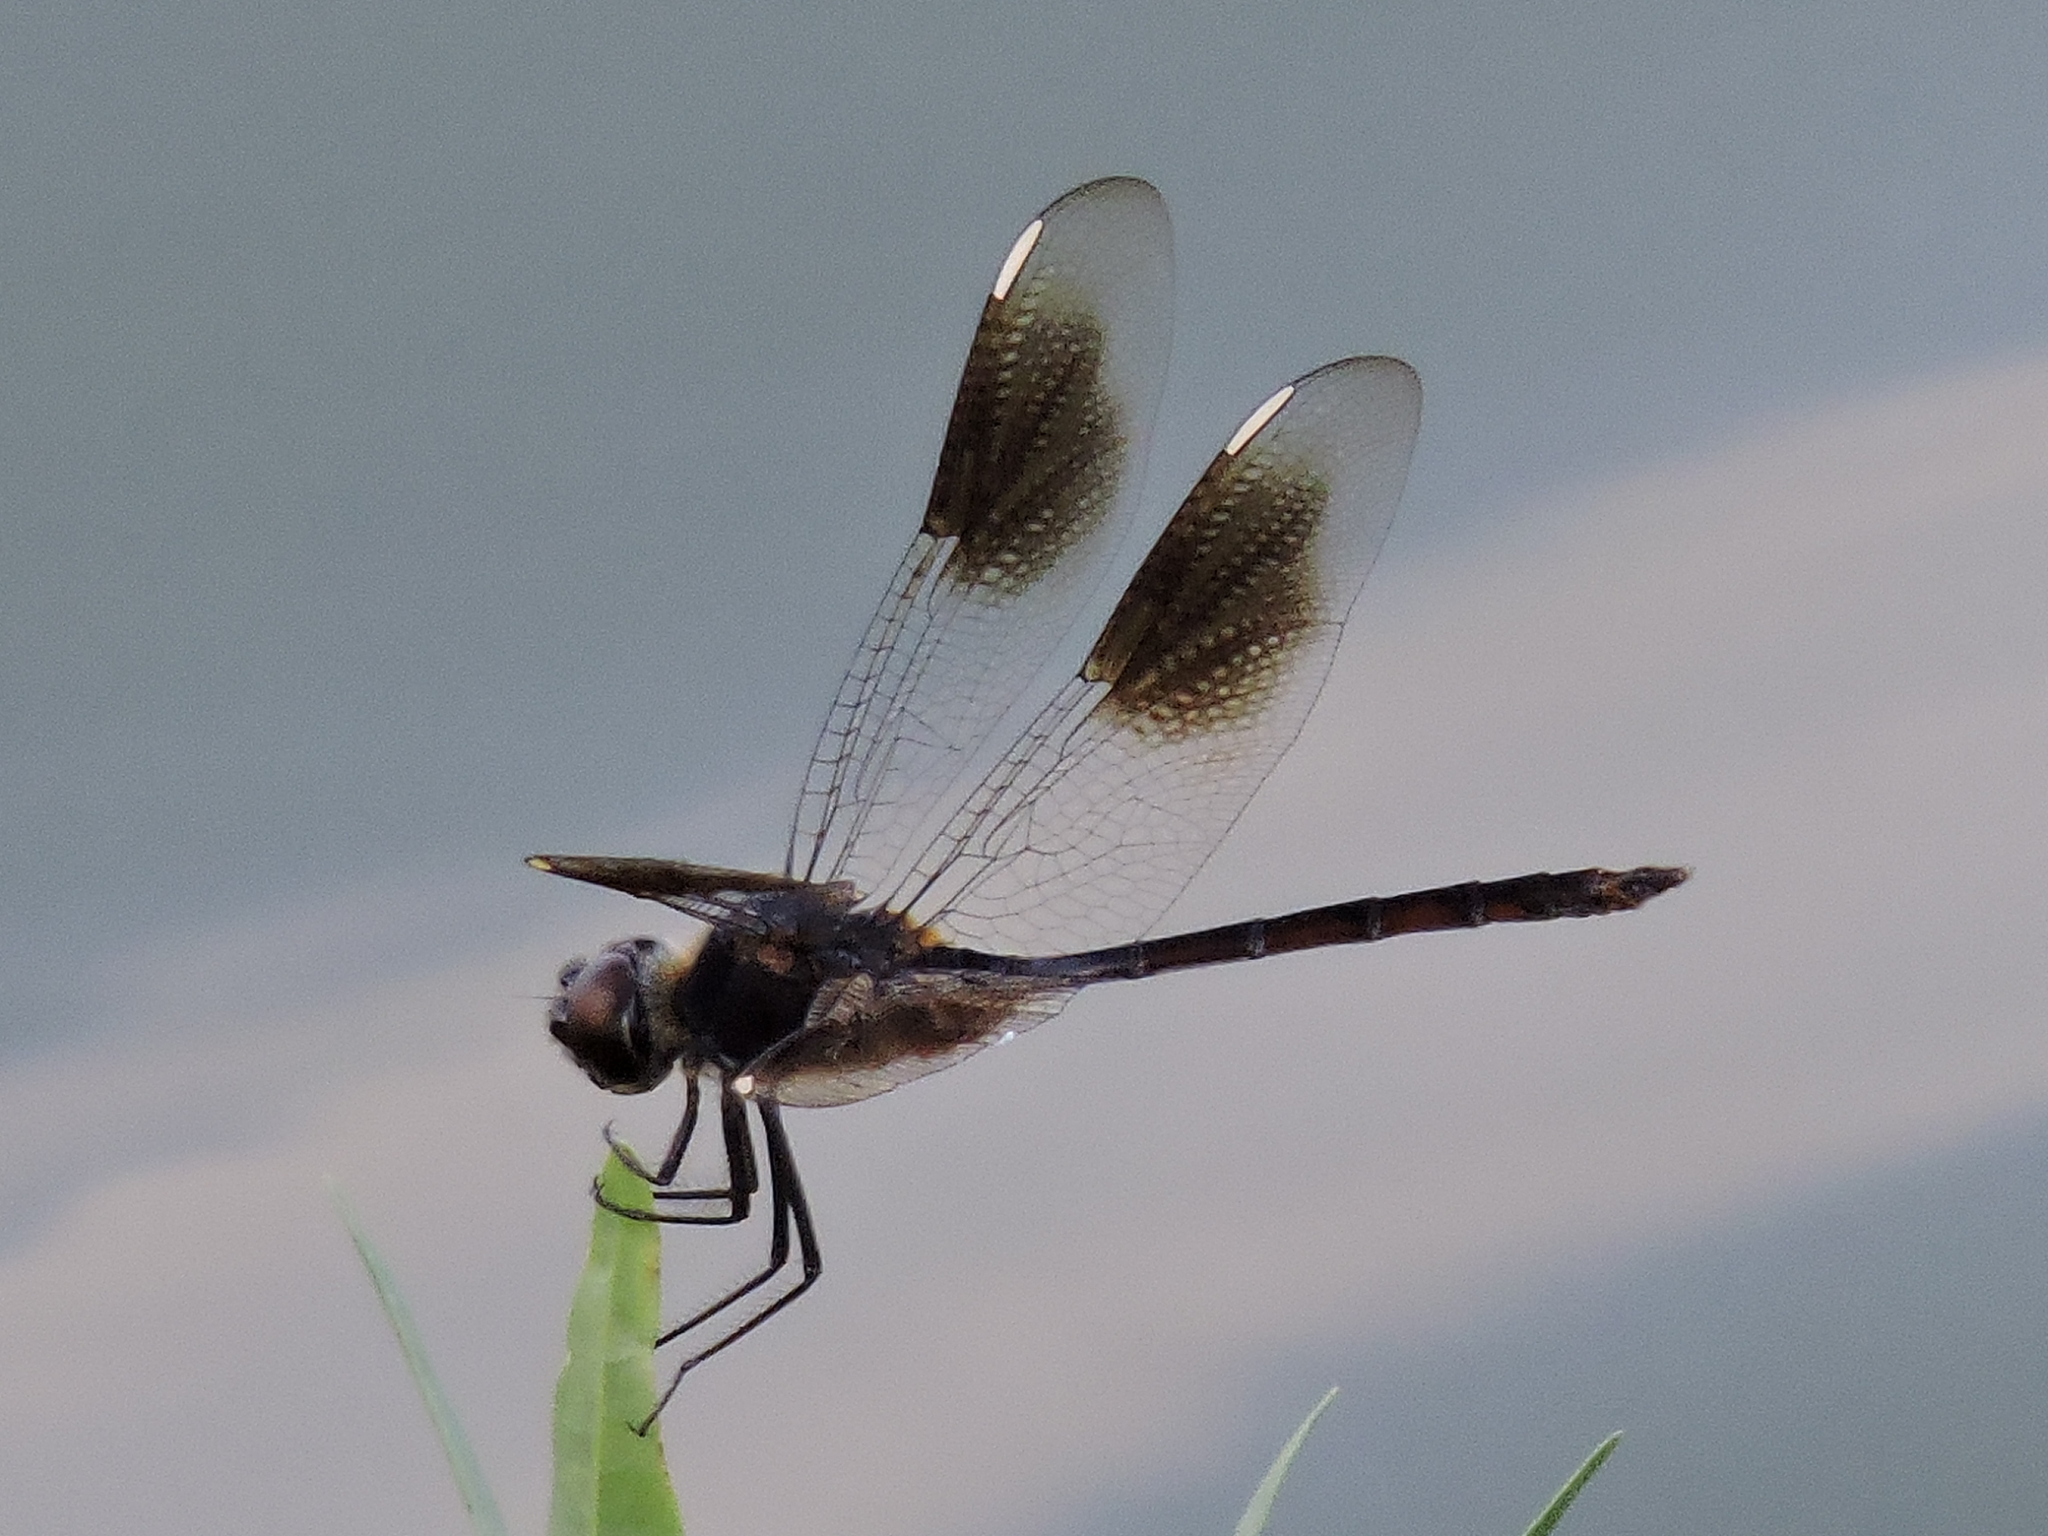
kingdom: Animalia
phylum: Arthropoda
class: Insecta
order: Odonata
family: Libellulidae
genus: Brachymesia
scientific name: Brachymesia gravida
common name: Four-spotted pennant
